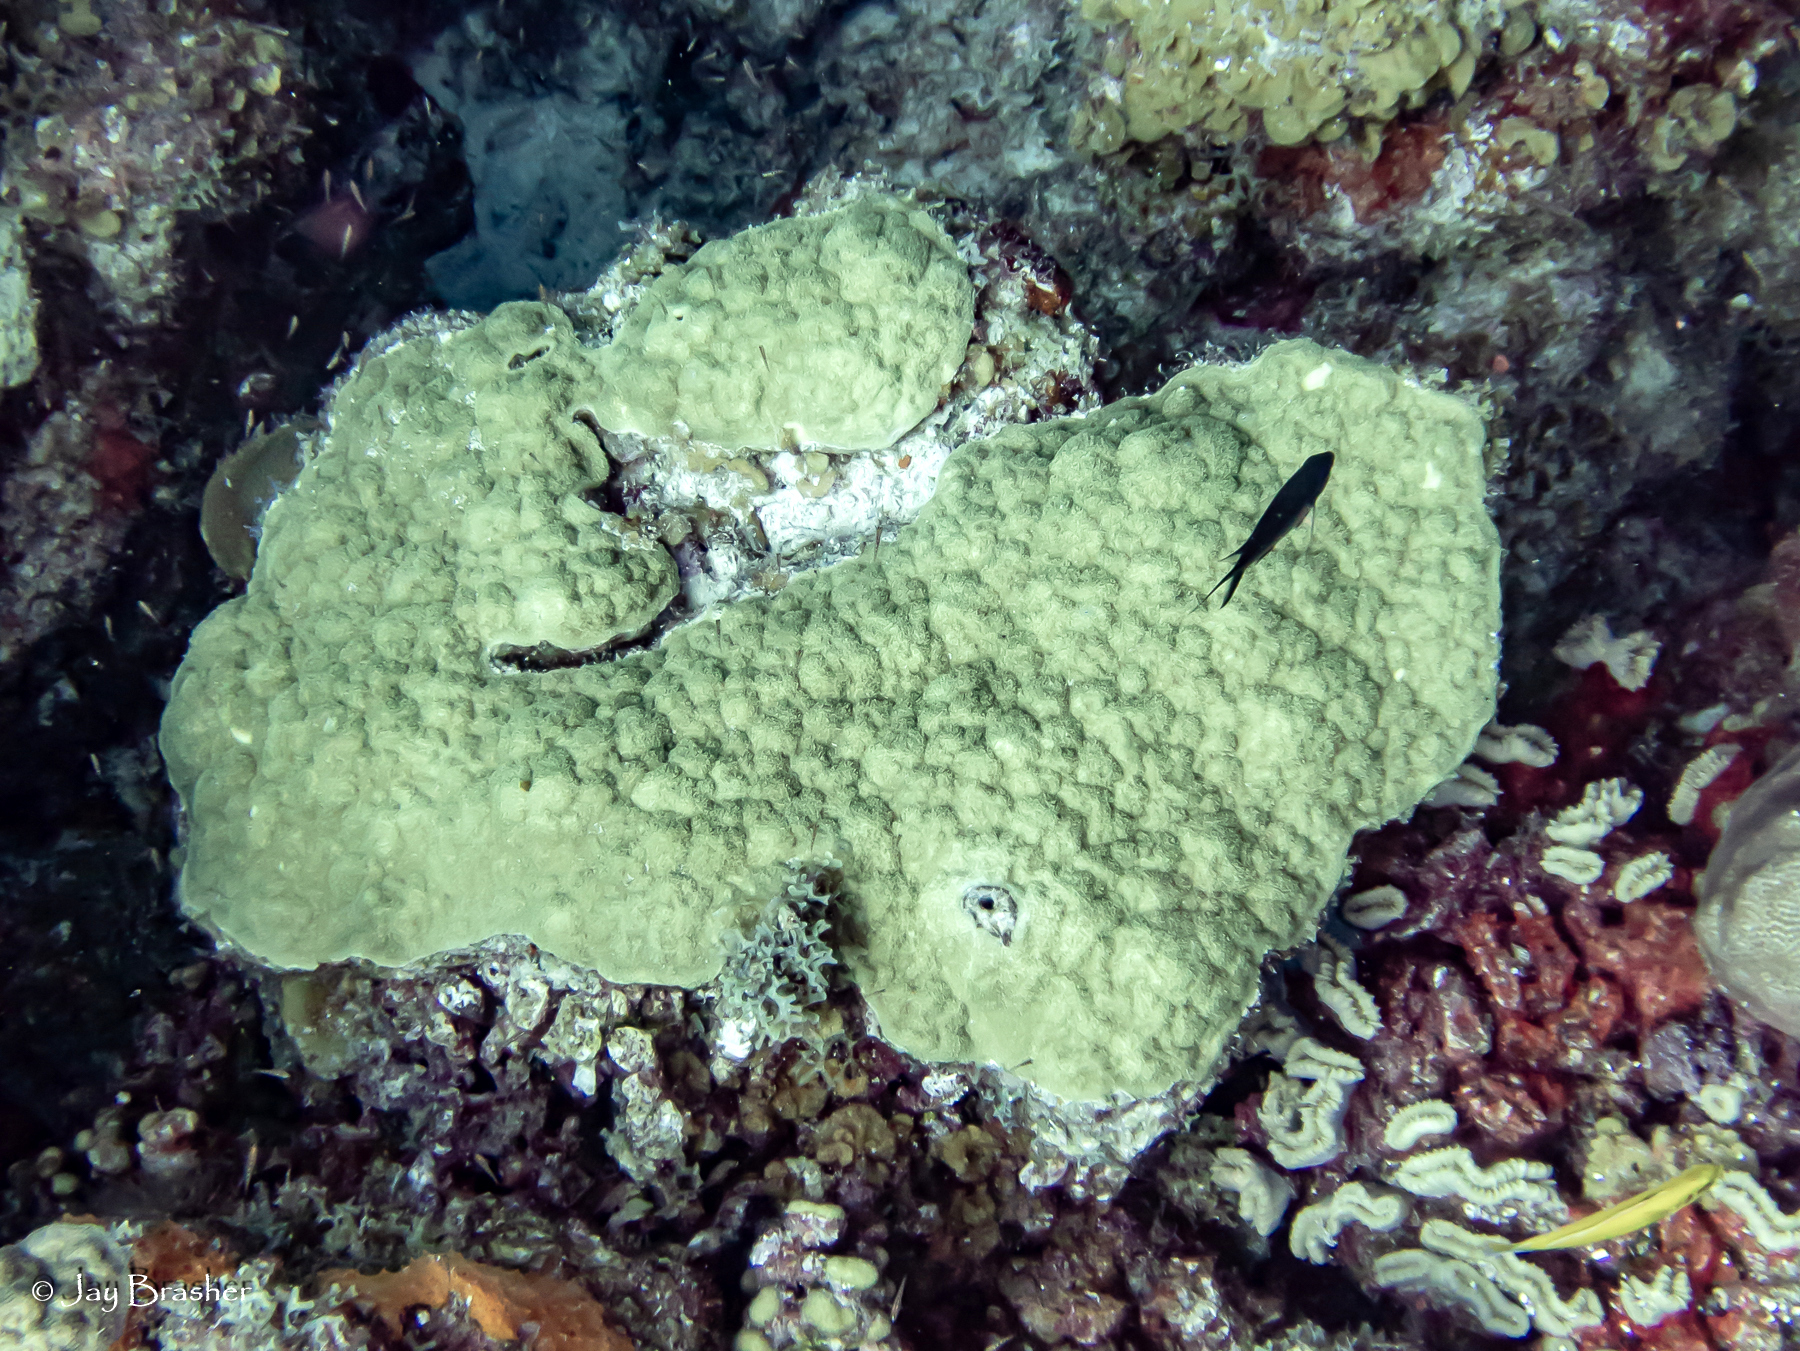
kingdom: Animalia
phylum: Cnidaria
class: Anthozoa
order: Scleractinia
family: Poritidae
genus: Porites
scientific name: Porites astreoides
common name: Mustard hill coral
